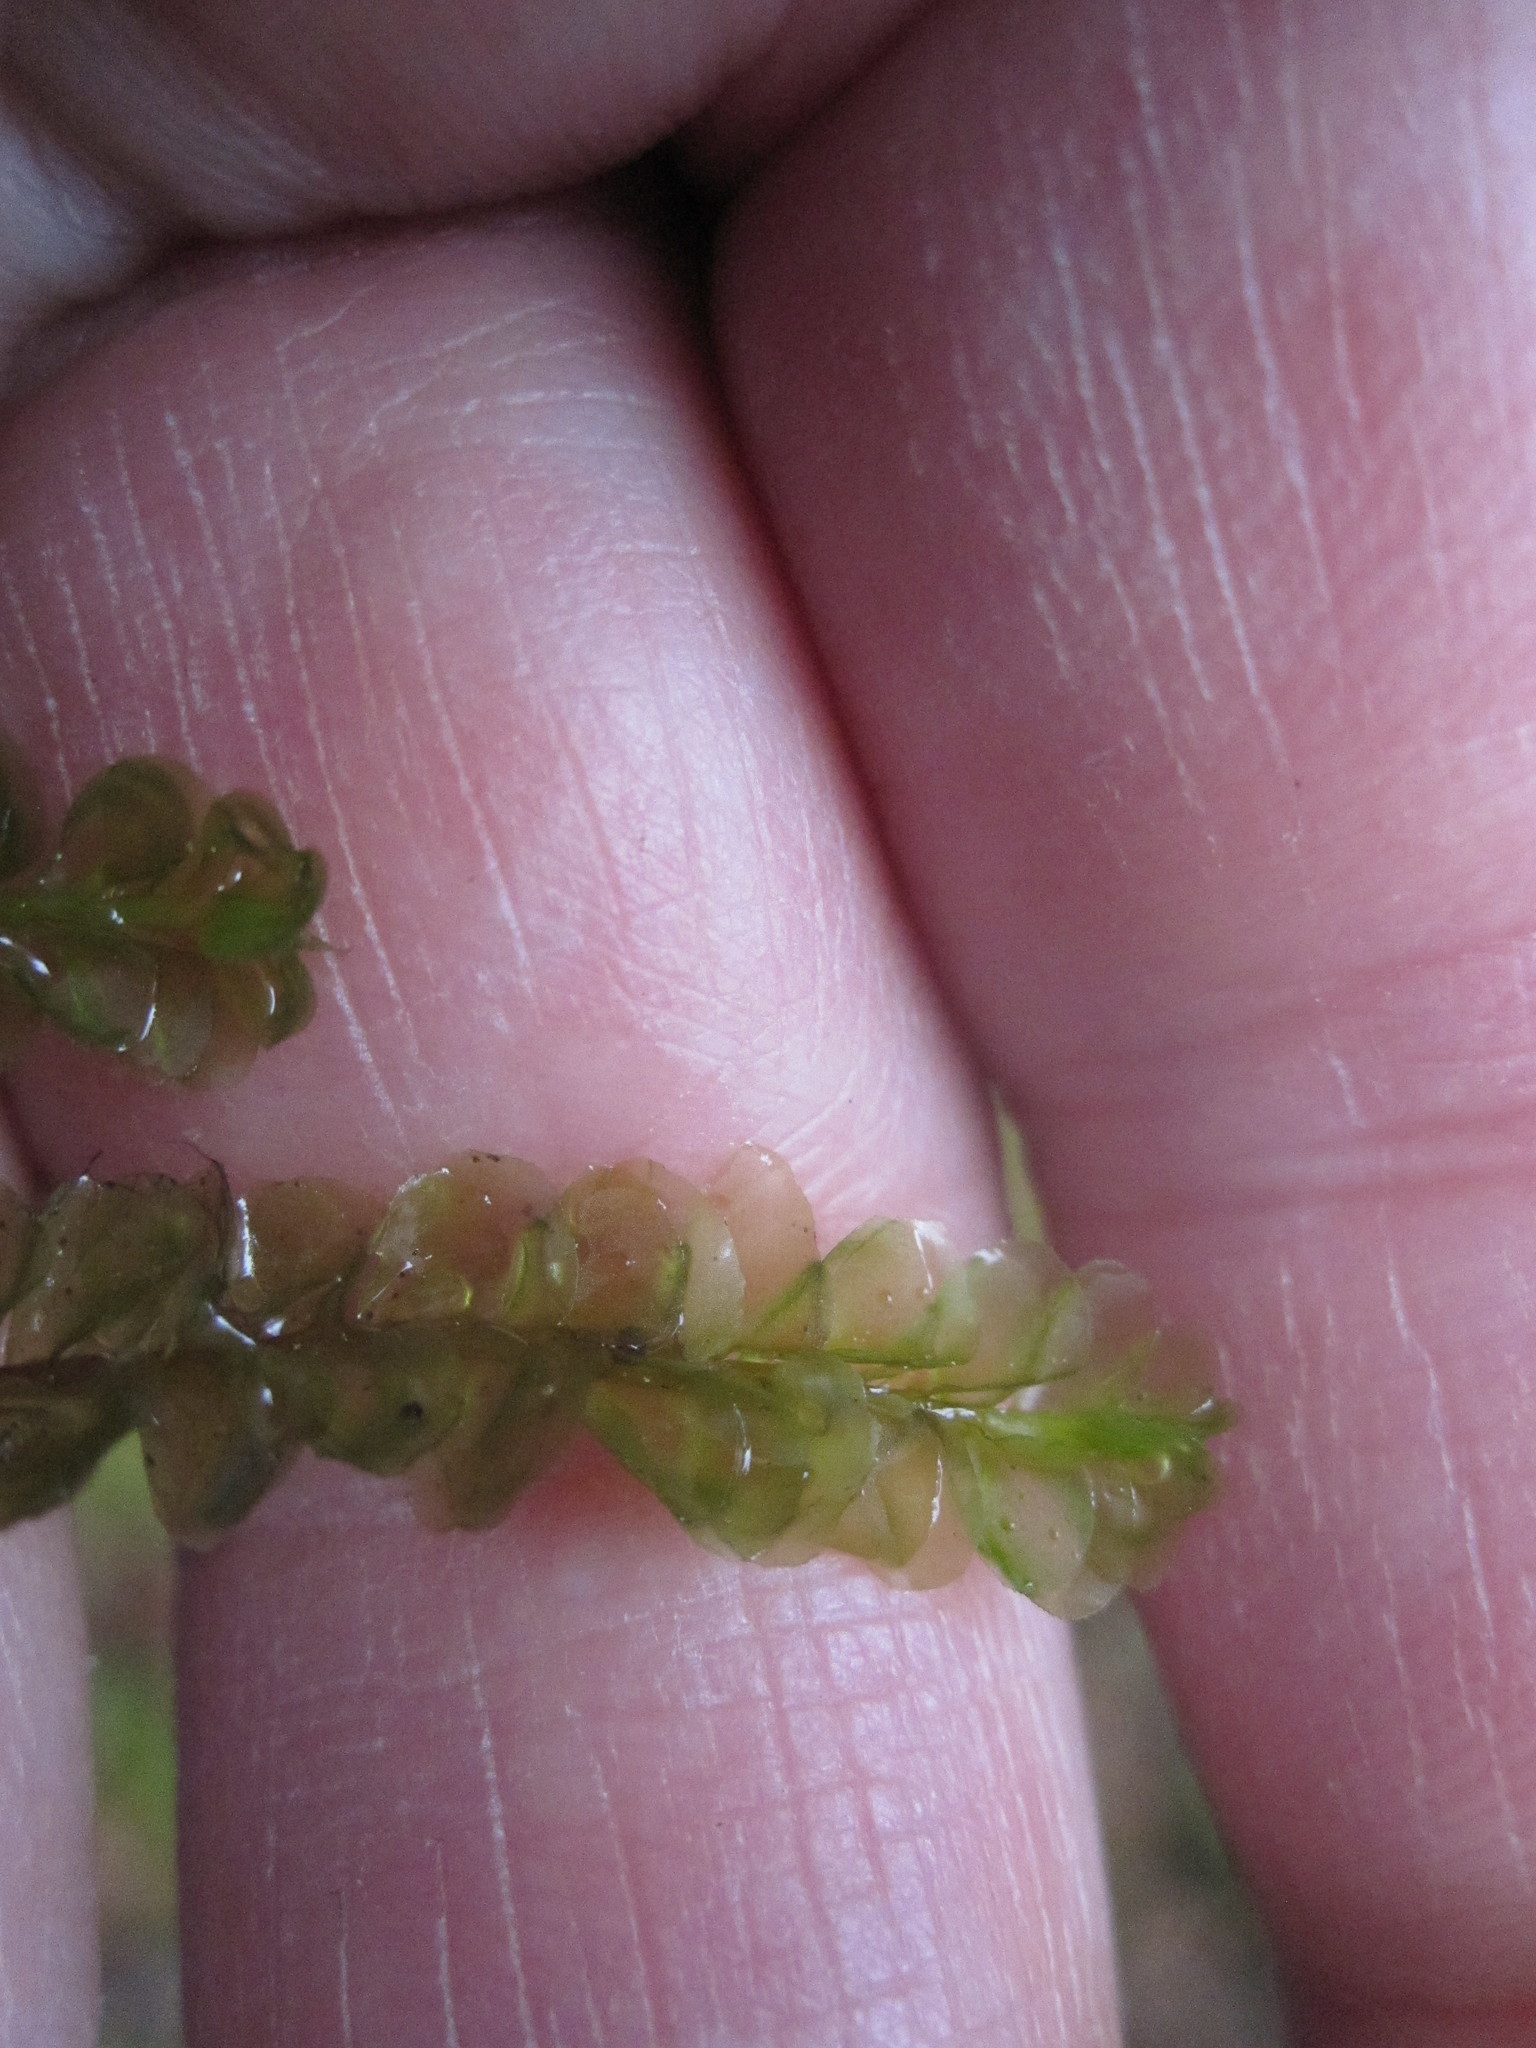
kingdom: Plantae
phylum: Marchantiophyta
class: Jungermanniopsida
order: Jungermanniales
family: Plagiochilaceae
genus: Plagiochila
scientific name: Plagiochila porelloides
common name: Lesser featherwort
